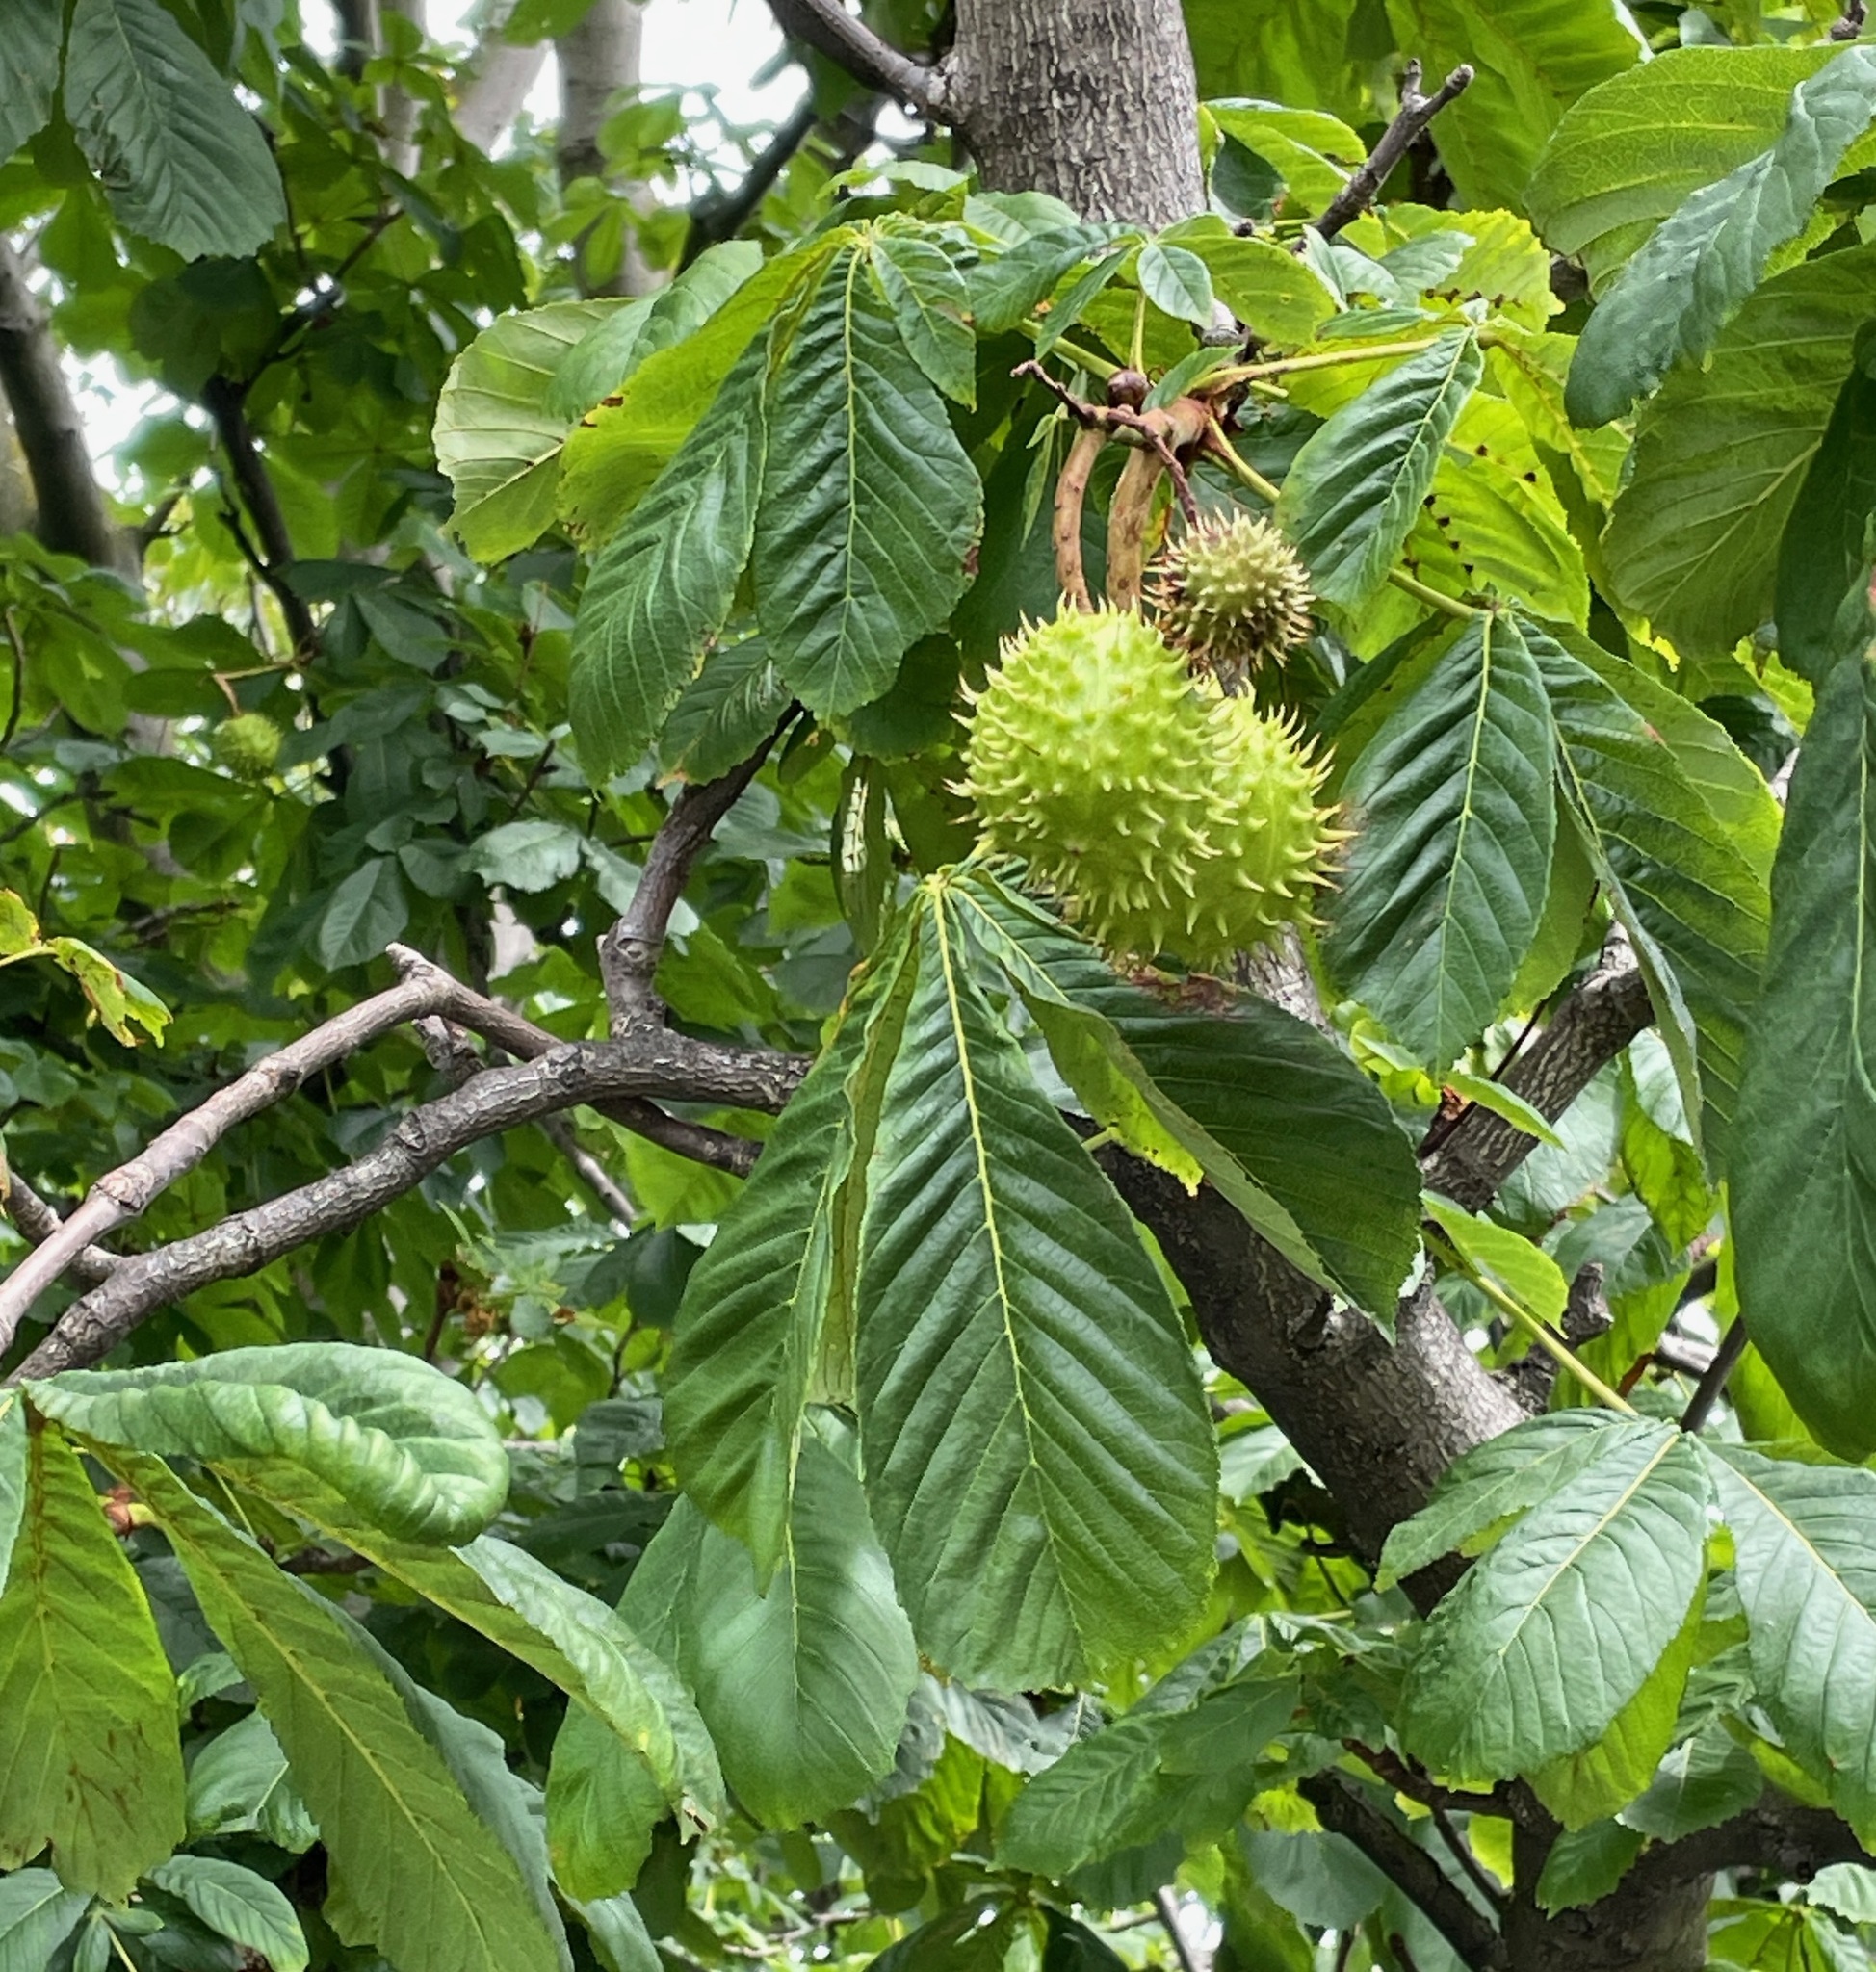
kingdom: Plantae
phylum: Tracheophyta
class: Magnoliopsida
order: Sapindales
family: Sapindaceae
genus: Aesculus
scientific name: Aesculus hippocastanum
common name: Horse-chestnut
